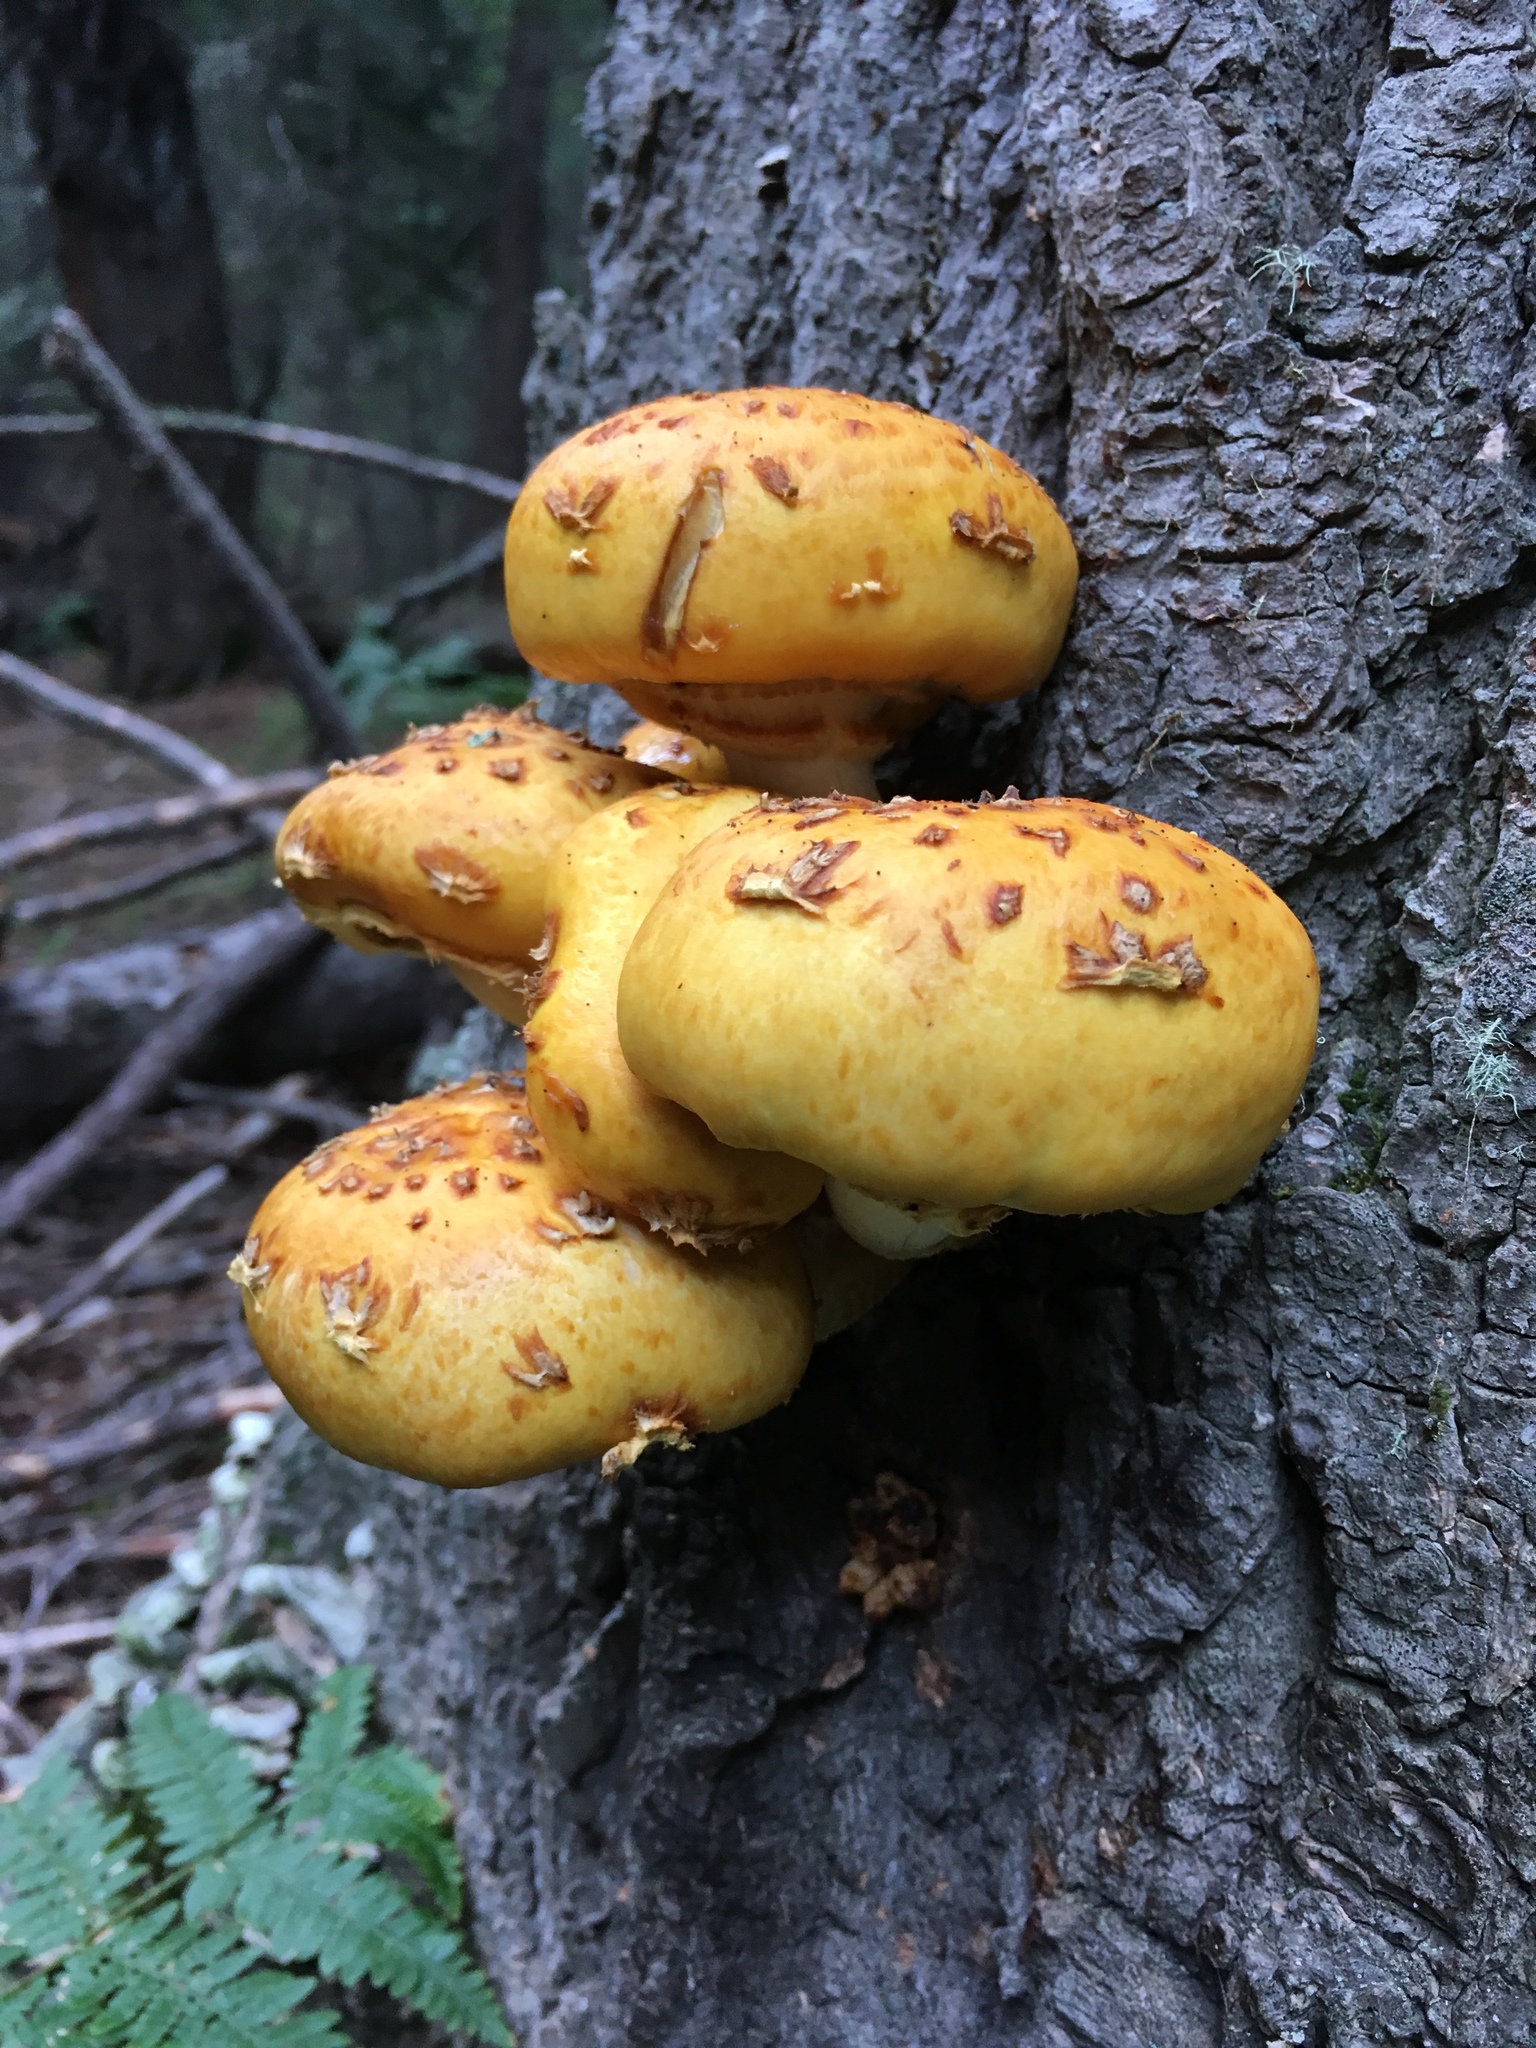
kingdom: Fungi
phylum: Basidiomycota
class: Agaricomycetes
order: Agaricales
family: Strophariaceae
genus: Pholiota
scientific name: Pholiota adiposa
